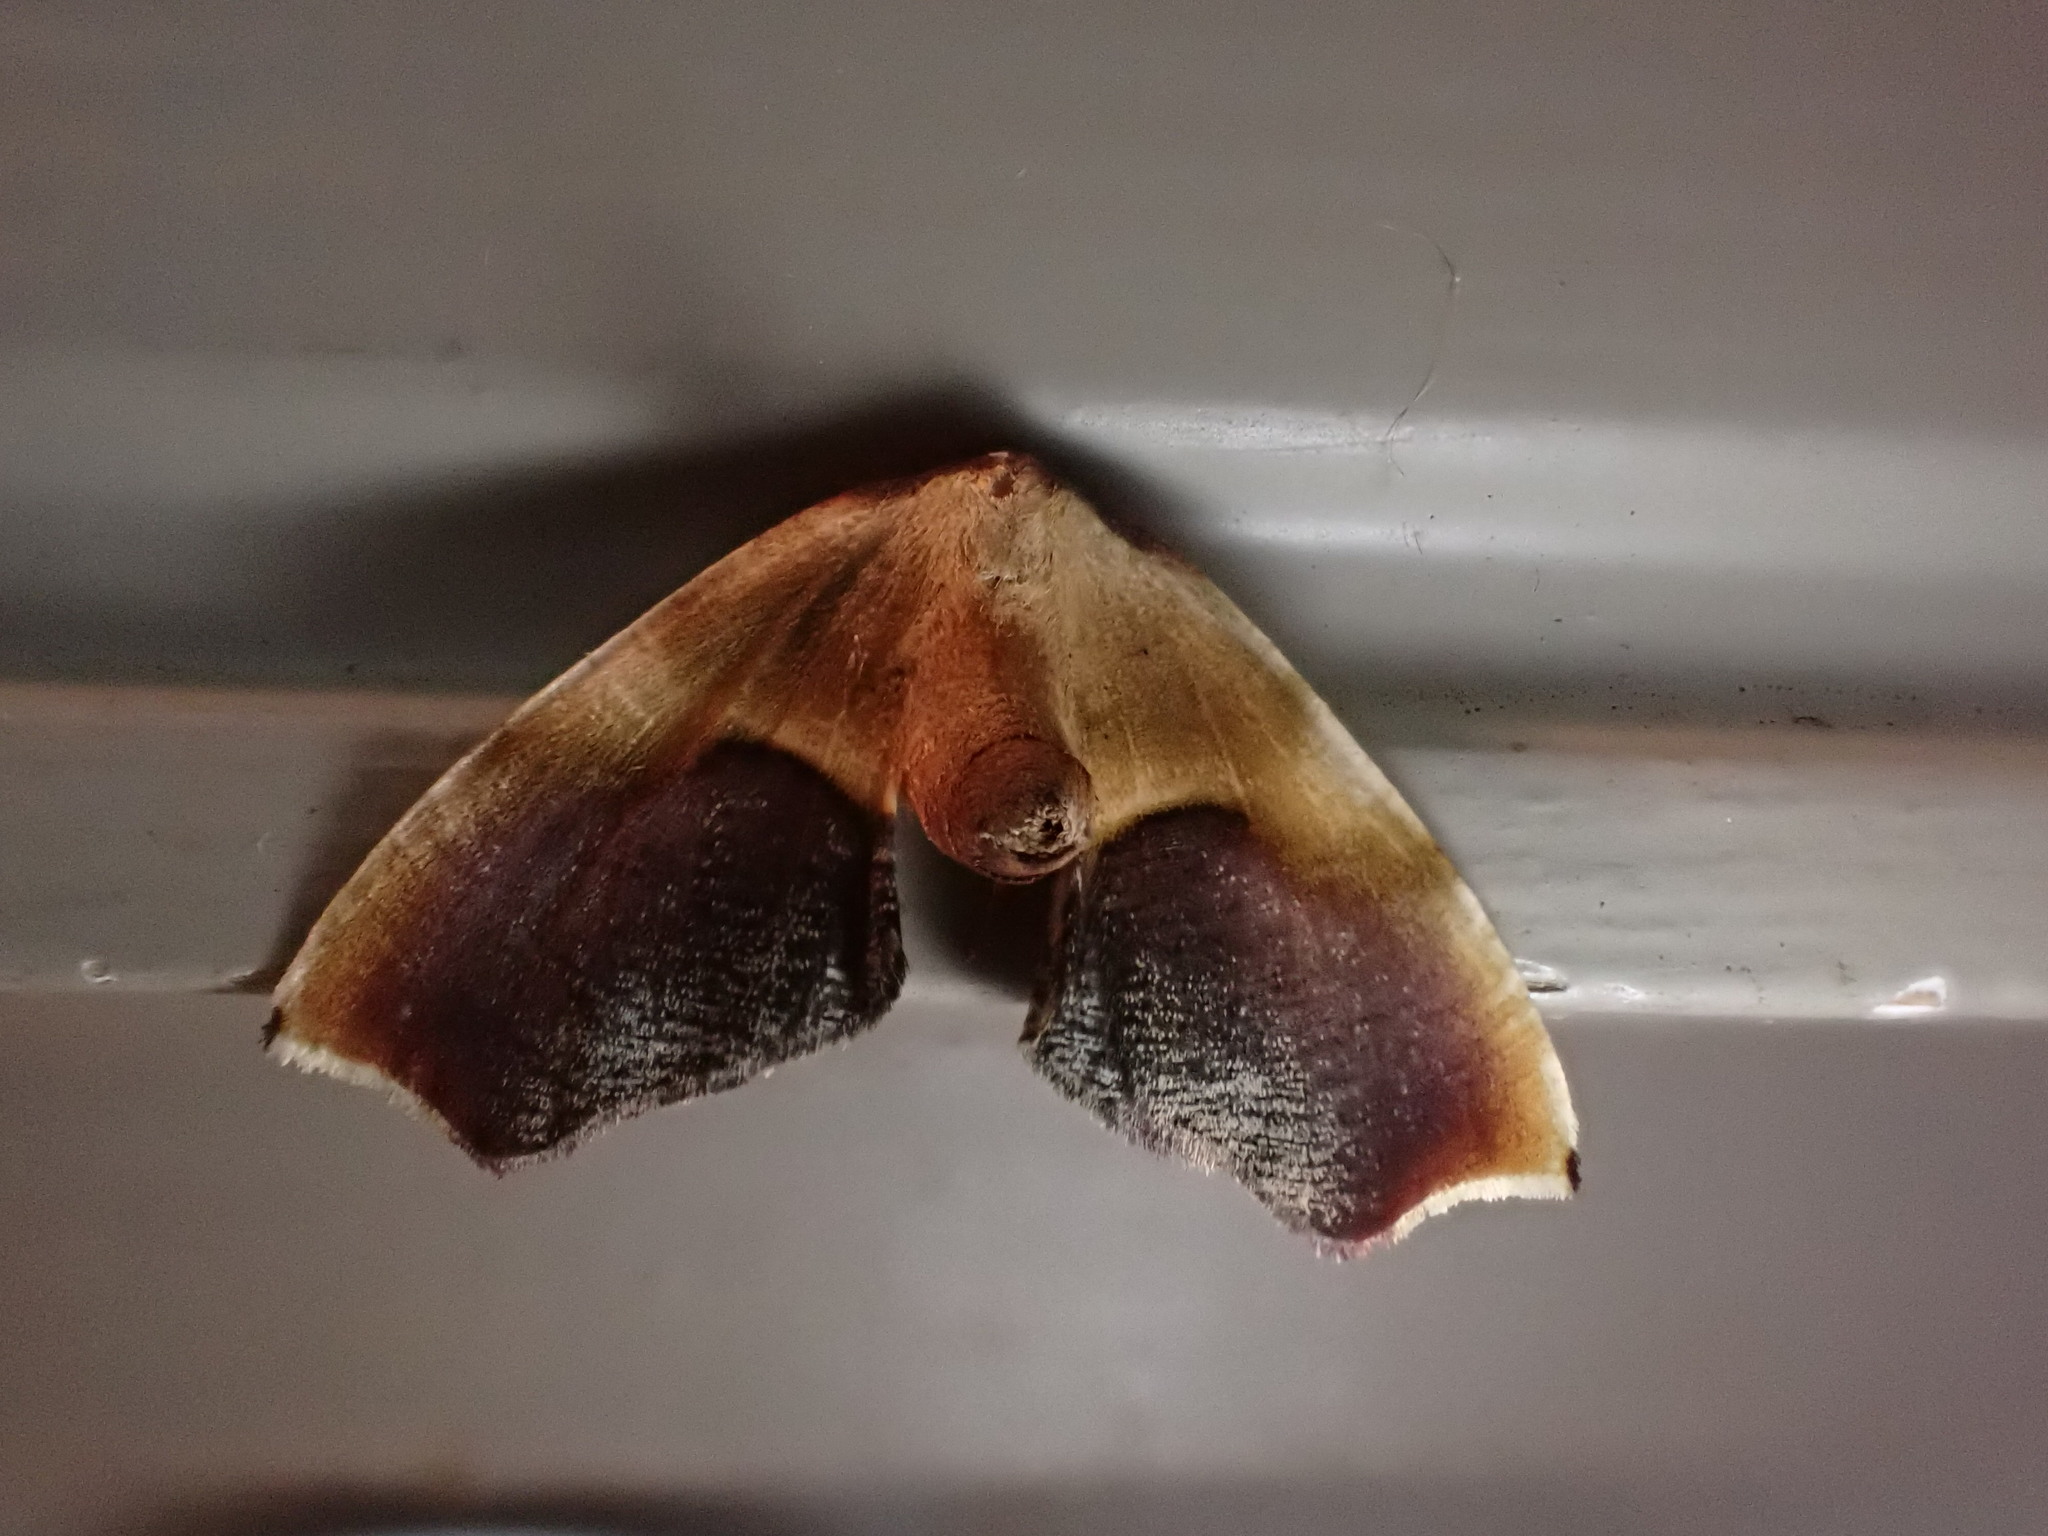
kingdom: Animalia
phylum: Arthropoda
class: Insecta
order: Lepidoptera
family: Geometridae
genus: Plagodis
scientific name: Plagodis kuetzingi
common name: Purple plagodis
